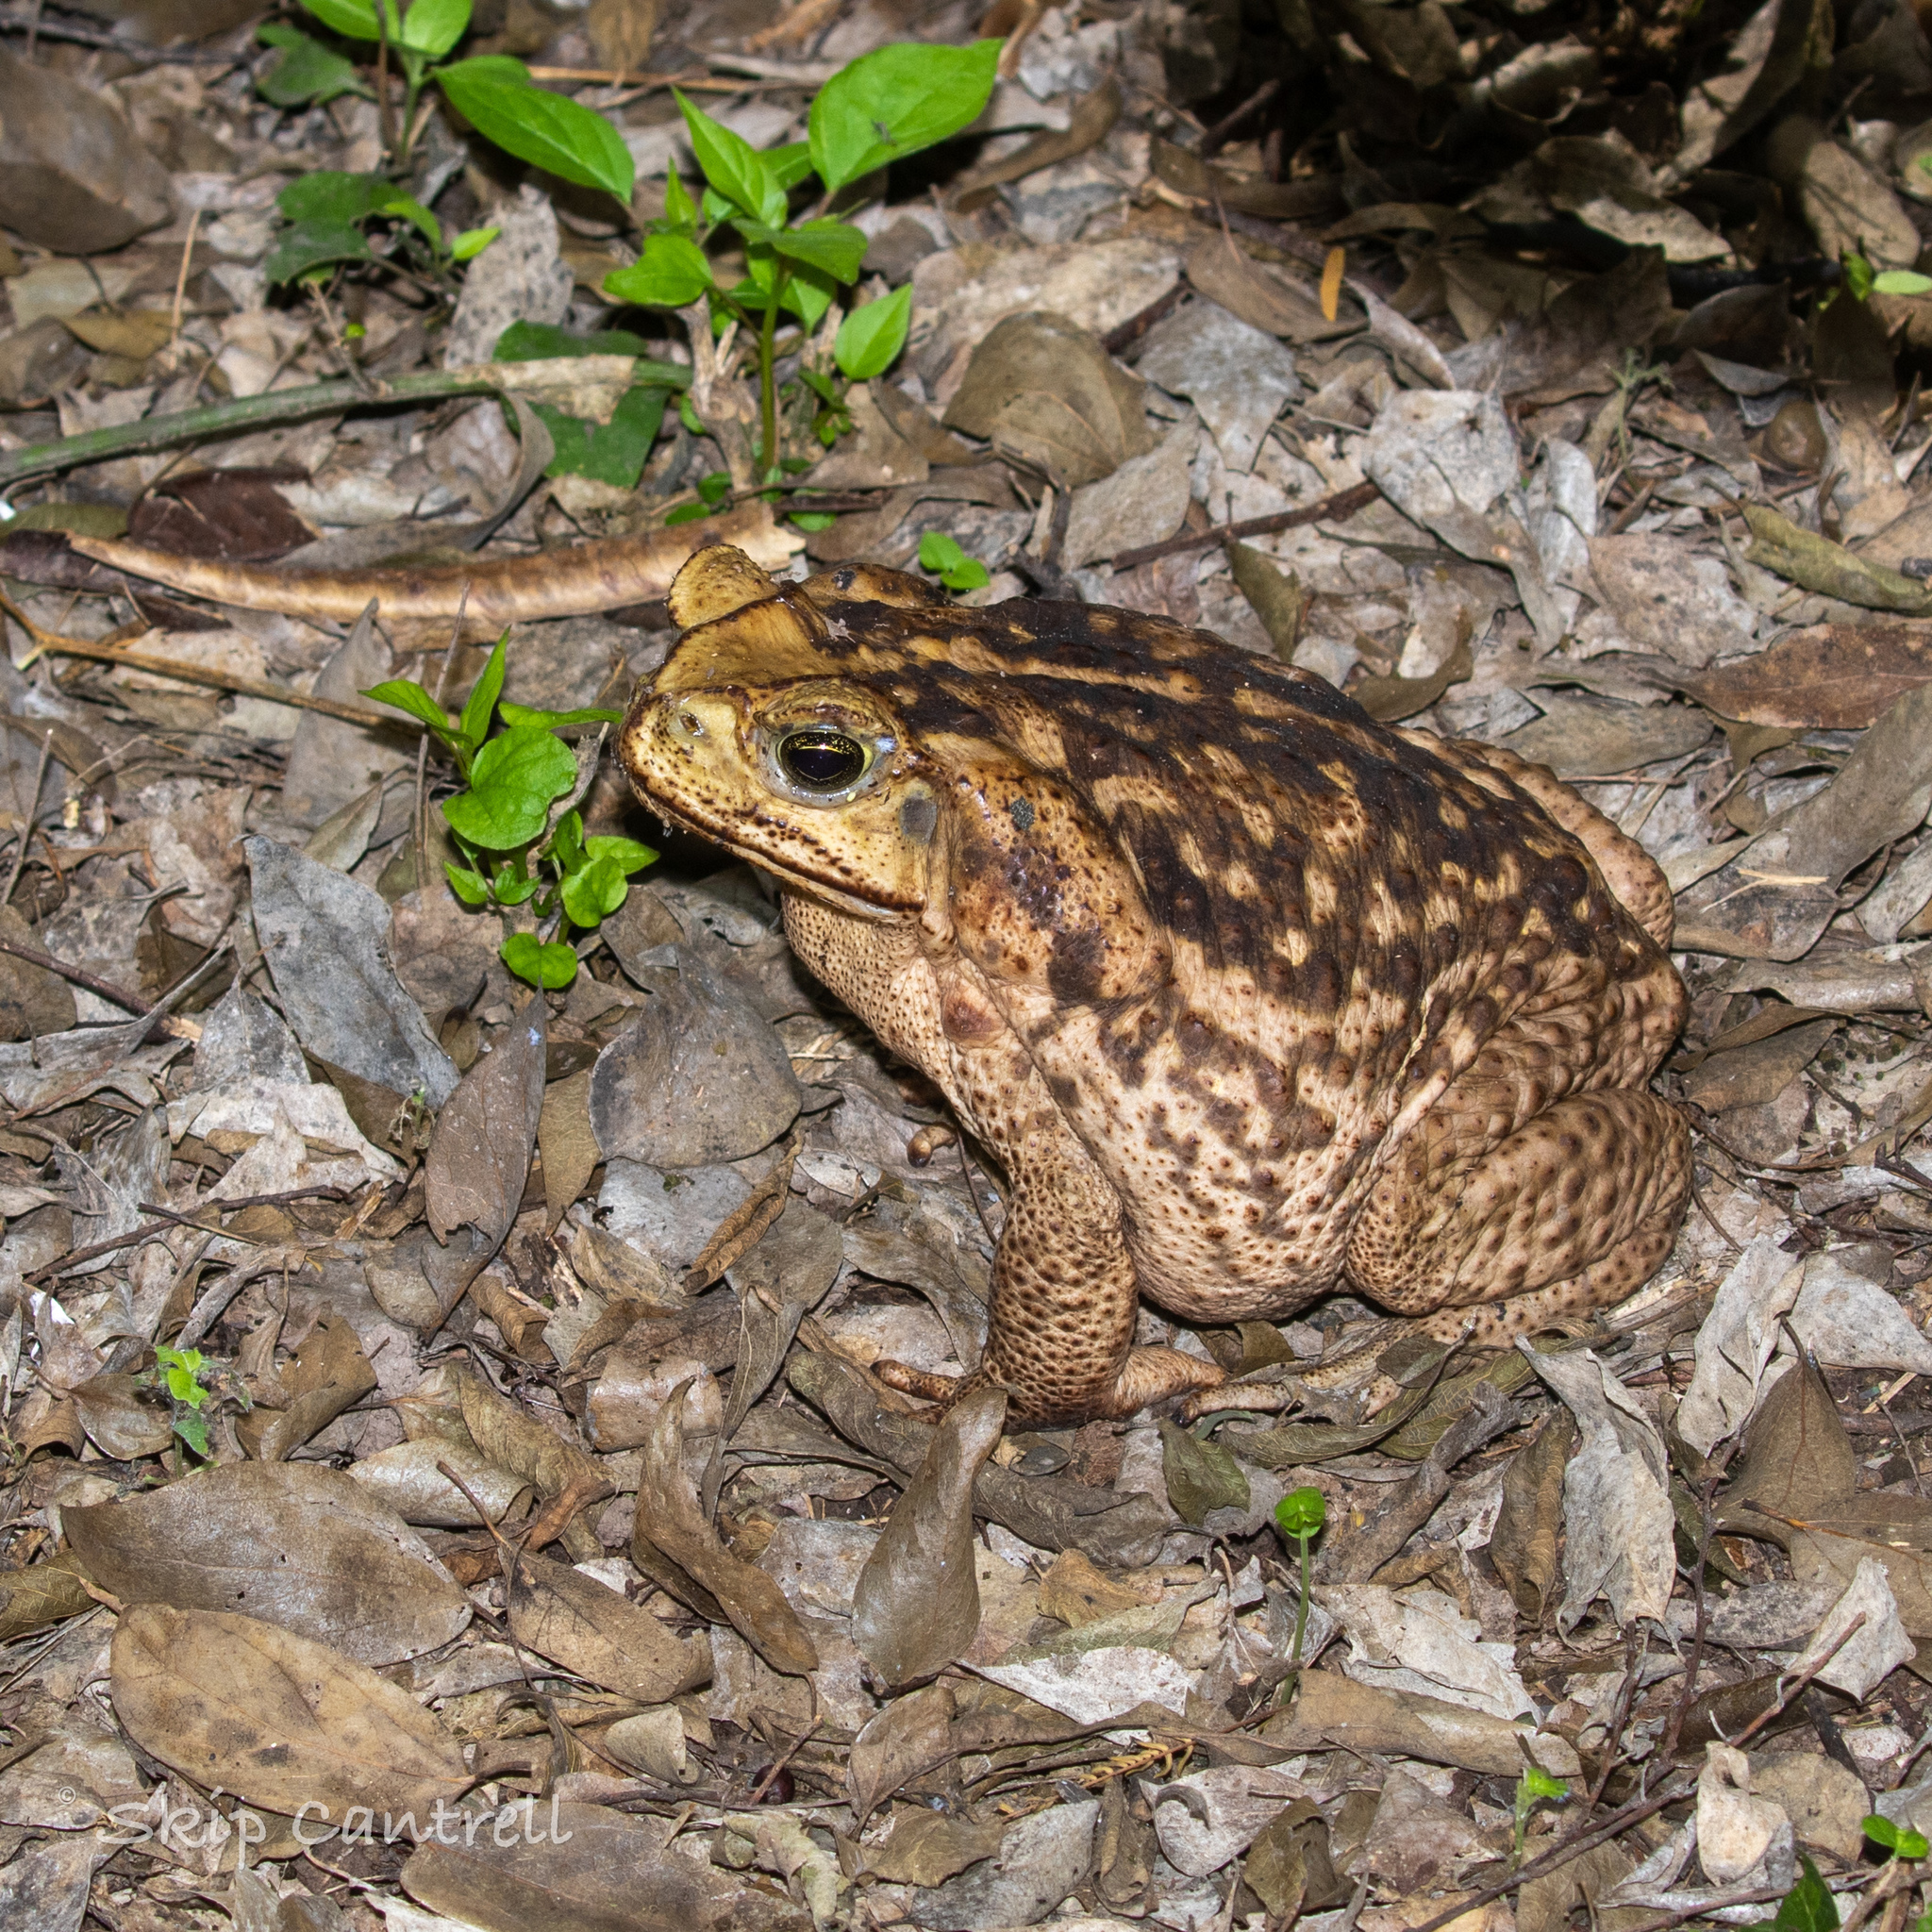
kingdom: Animalia
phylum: Chordata
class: Amphibia
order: Anura
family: Bufonidae
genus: Rhinella
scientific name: Rhinella horribilis
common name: Mesoamerican cane toad
